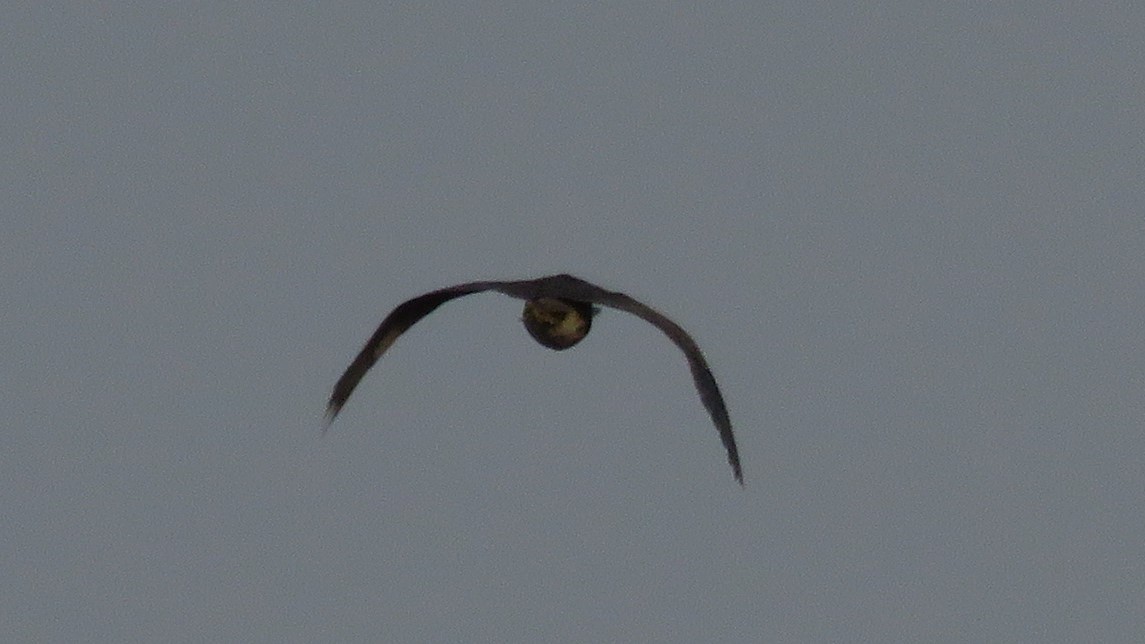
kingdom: Animalia
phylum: Chordata
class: Aves
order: Pelecaniformes
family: Ardeidae
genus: Botaurus
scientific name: Botaurus lentiginosus
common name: American bittern
